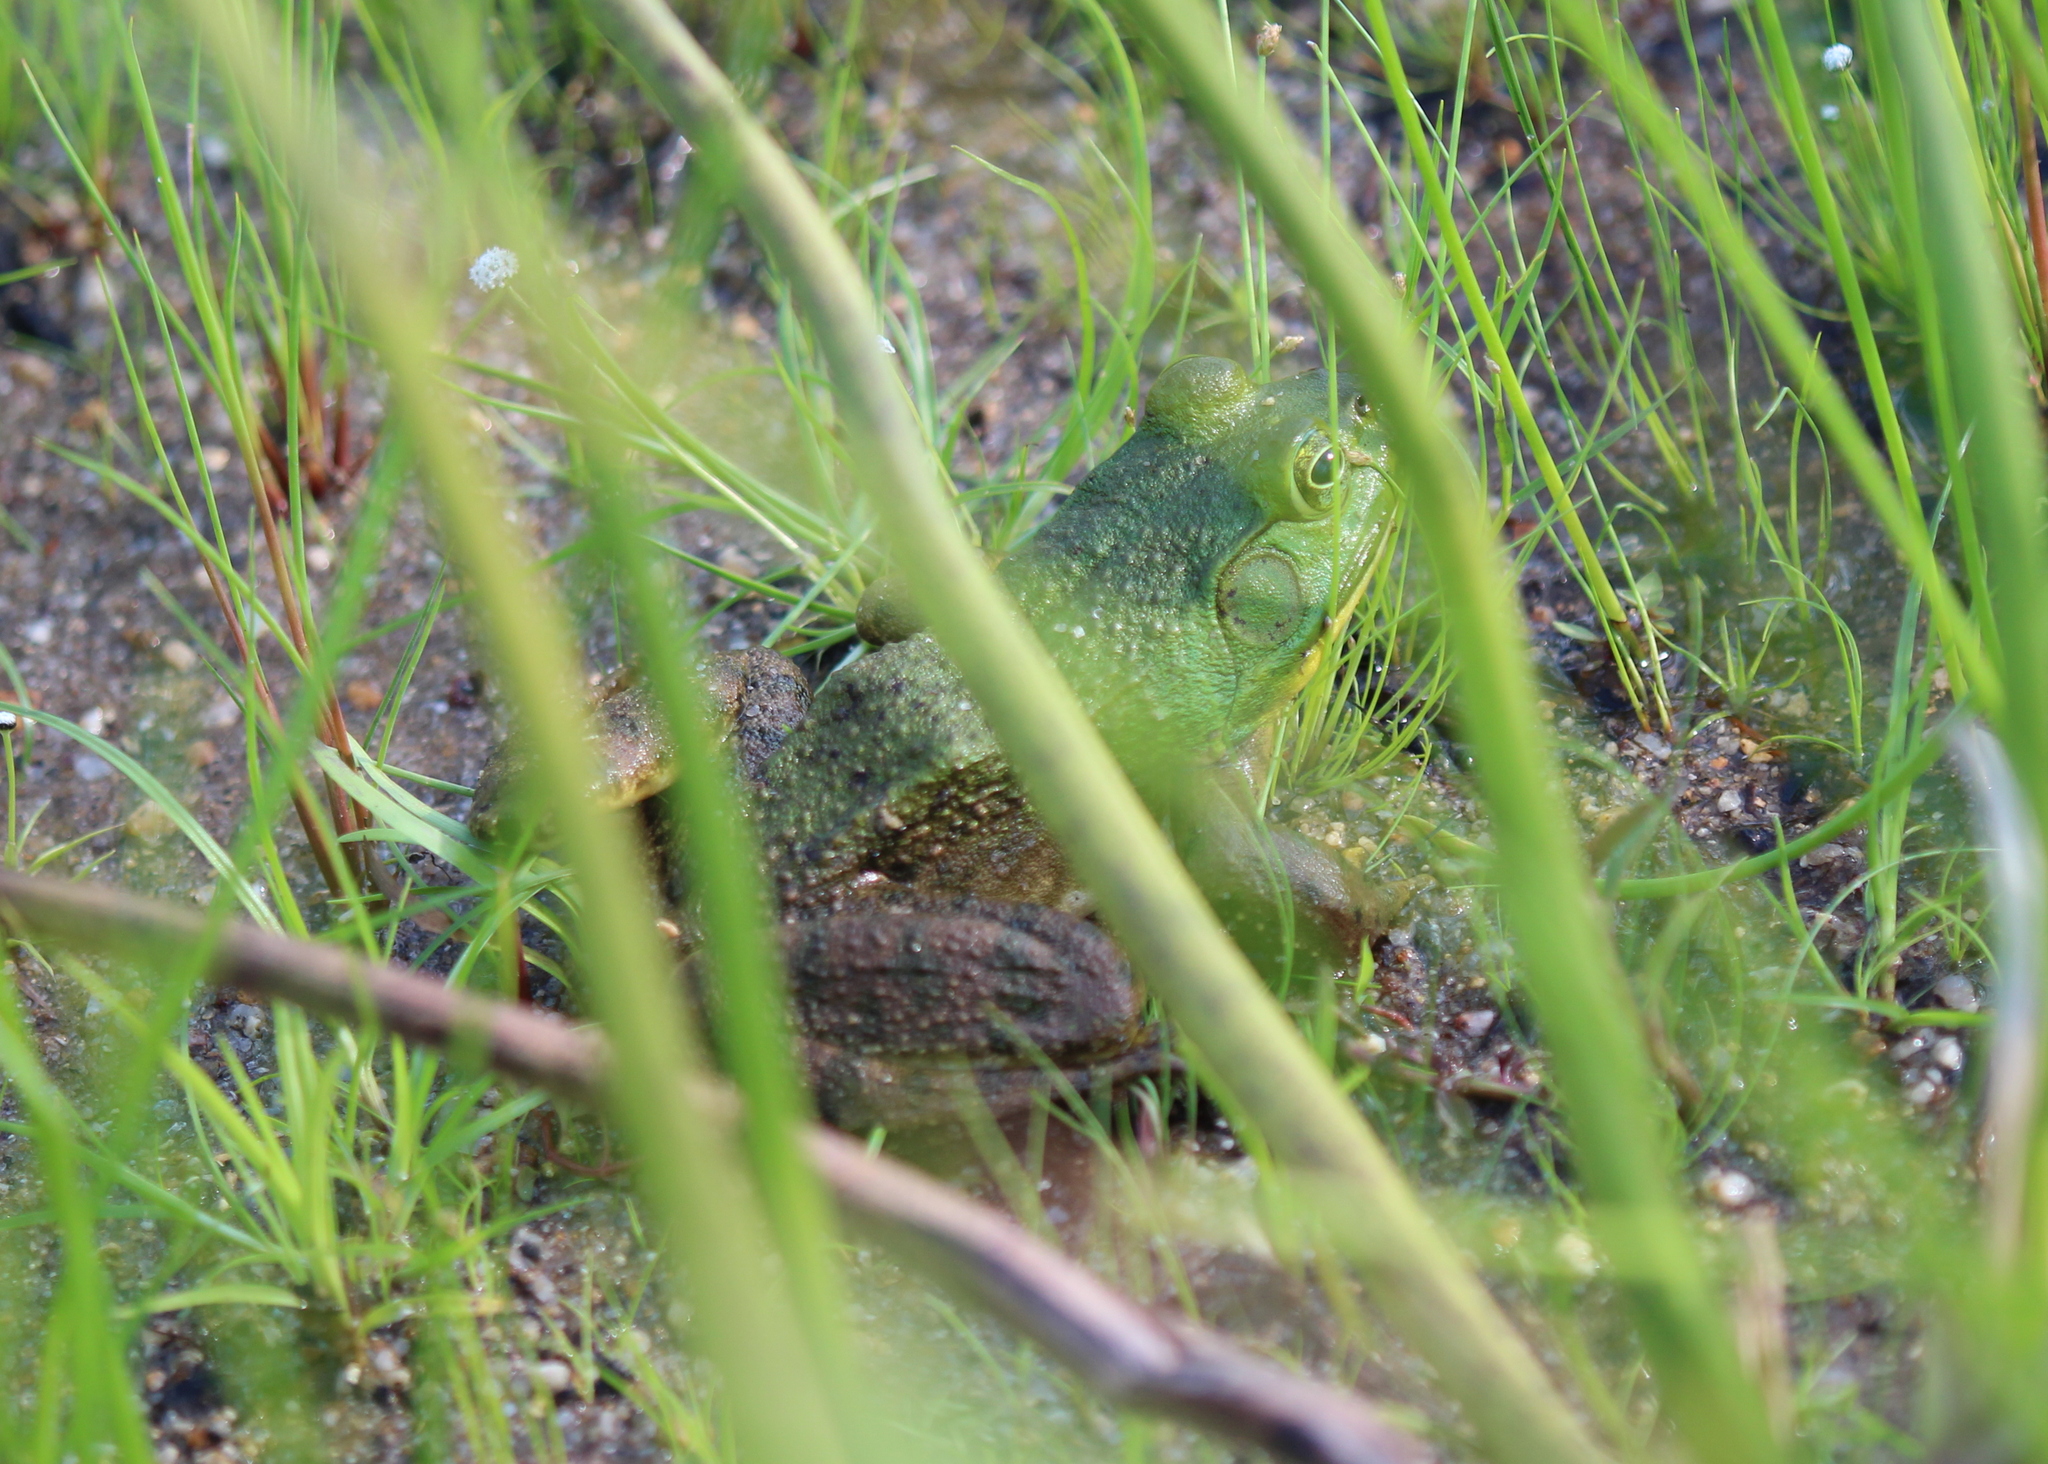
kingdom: Animalia
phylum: Chordata
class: Amphibia
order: Anura
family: Ranidae
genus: Lithobates
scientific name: Lithobates catesbeianus
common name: American bullfrog
